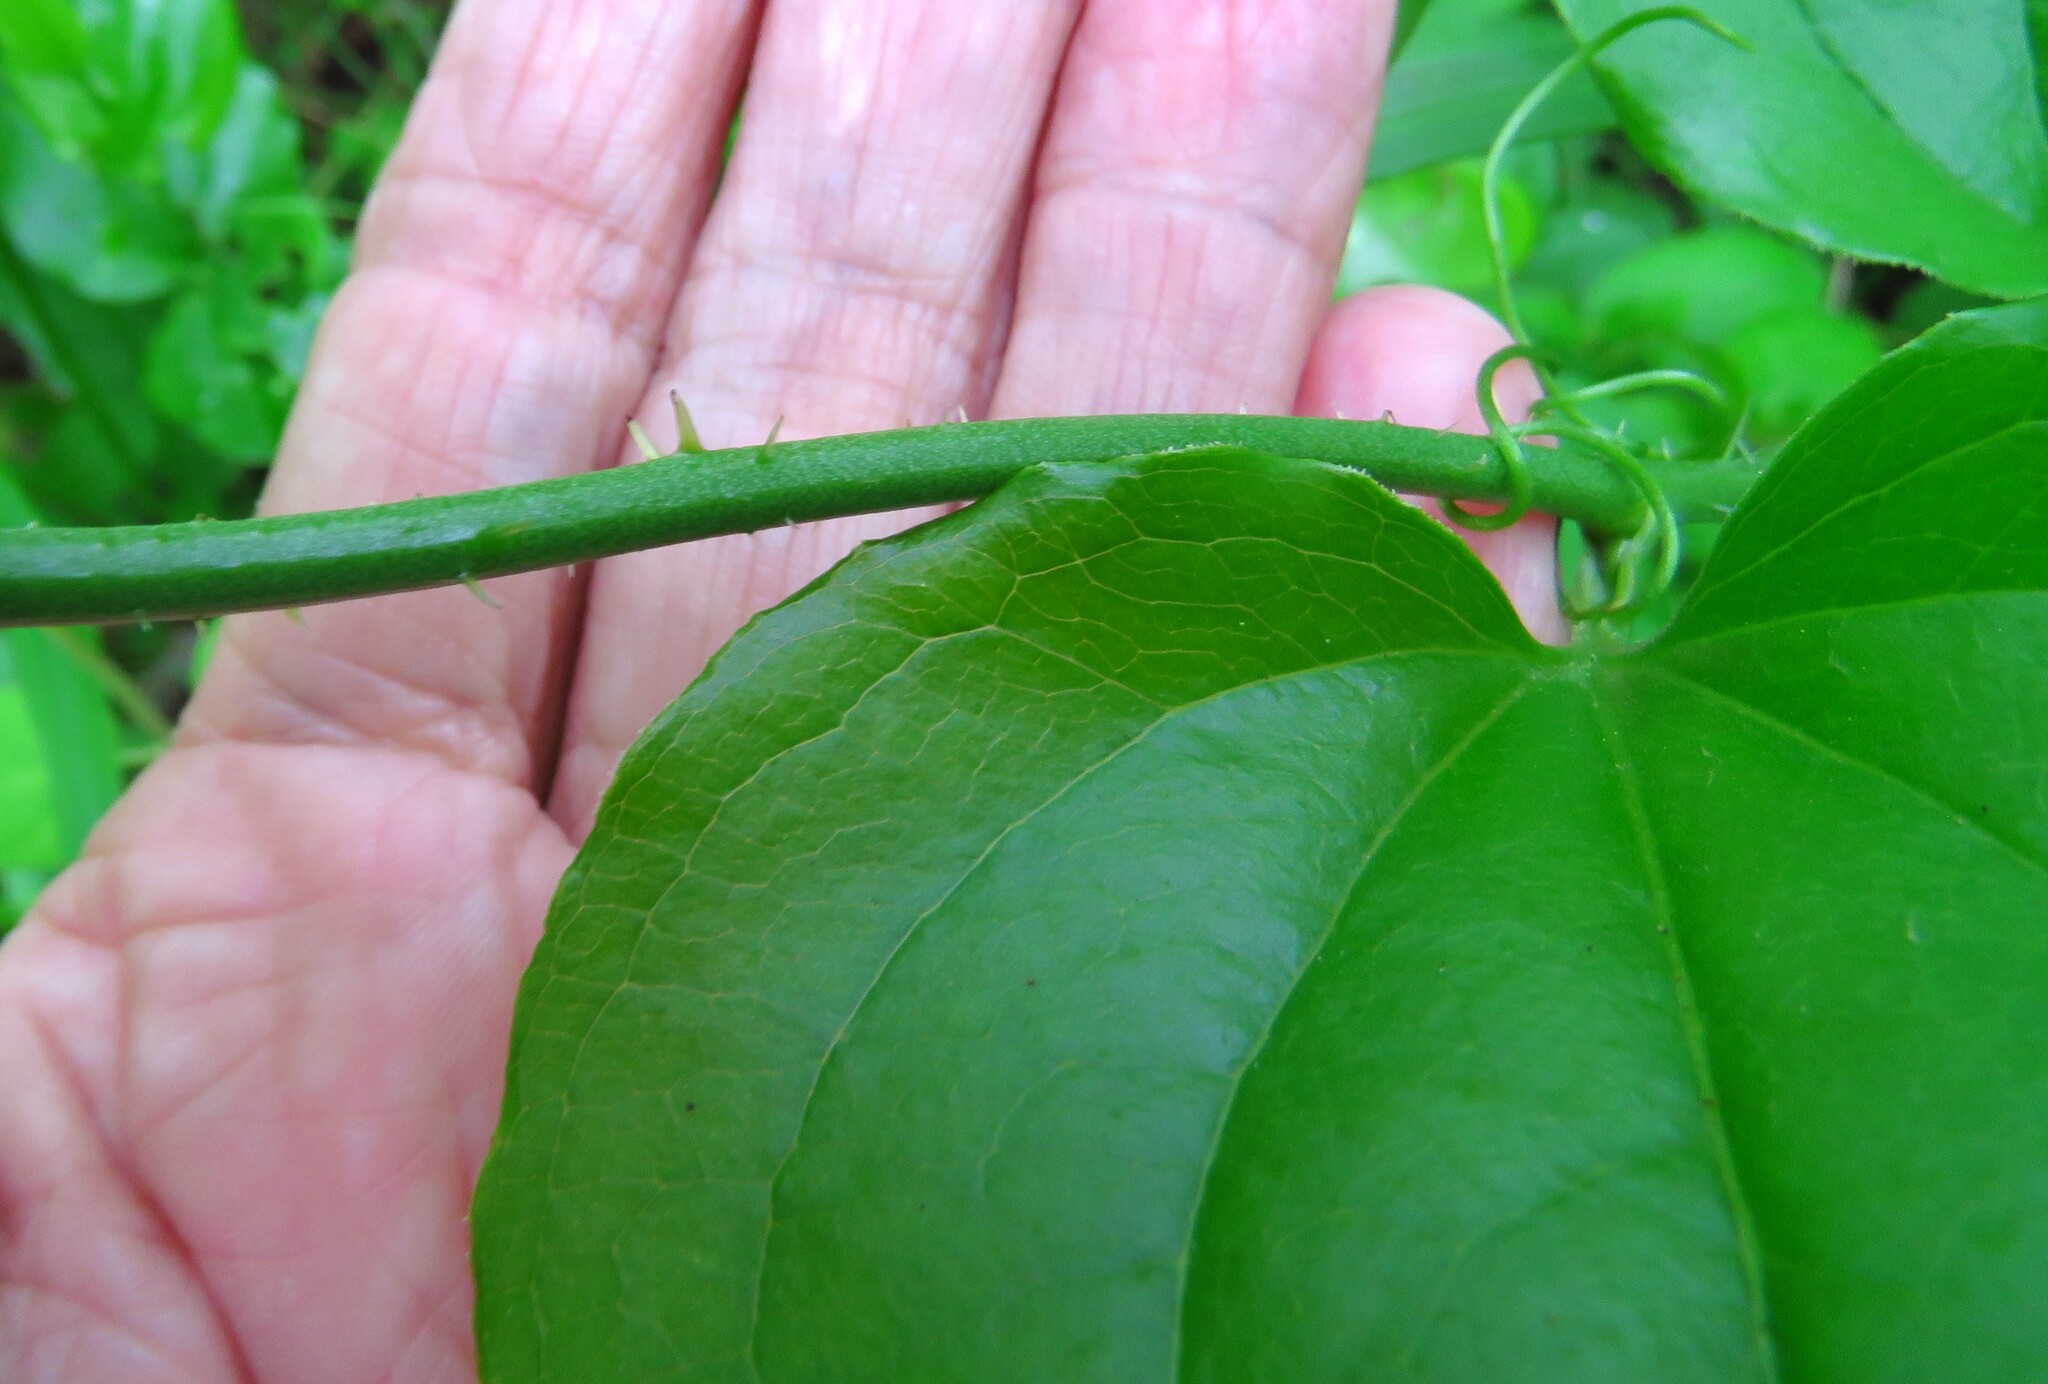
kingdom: Plantae
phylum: Tracheophyta
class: Liliopsida
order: Liliales
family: Smilacaceae
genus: Smilax
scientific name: Smilax tamnoides
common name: Hellfetter
